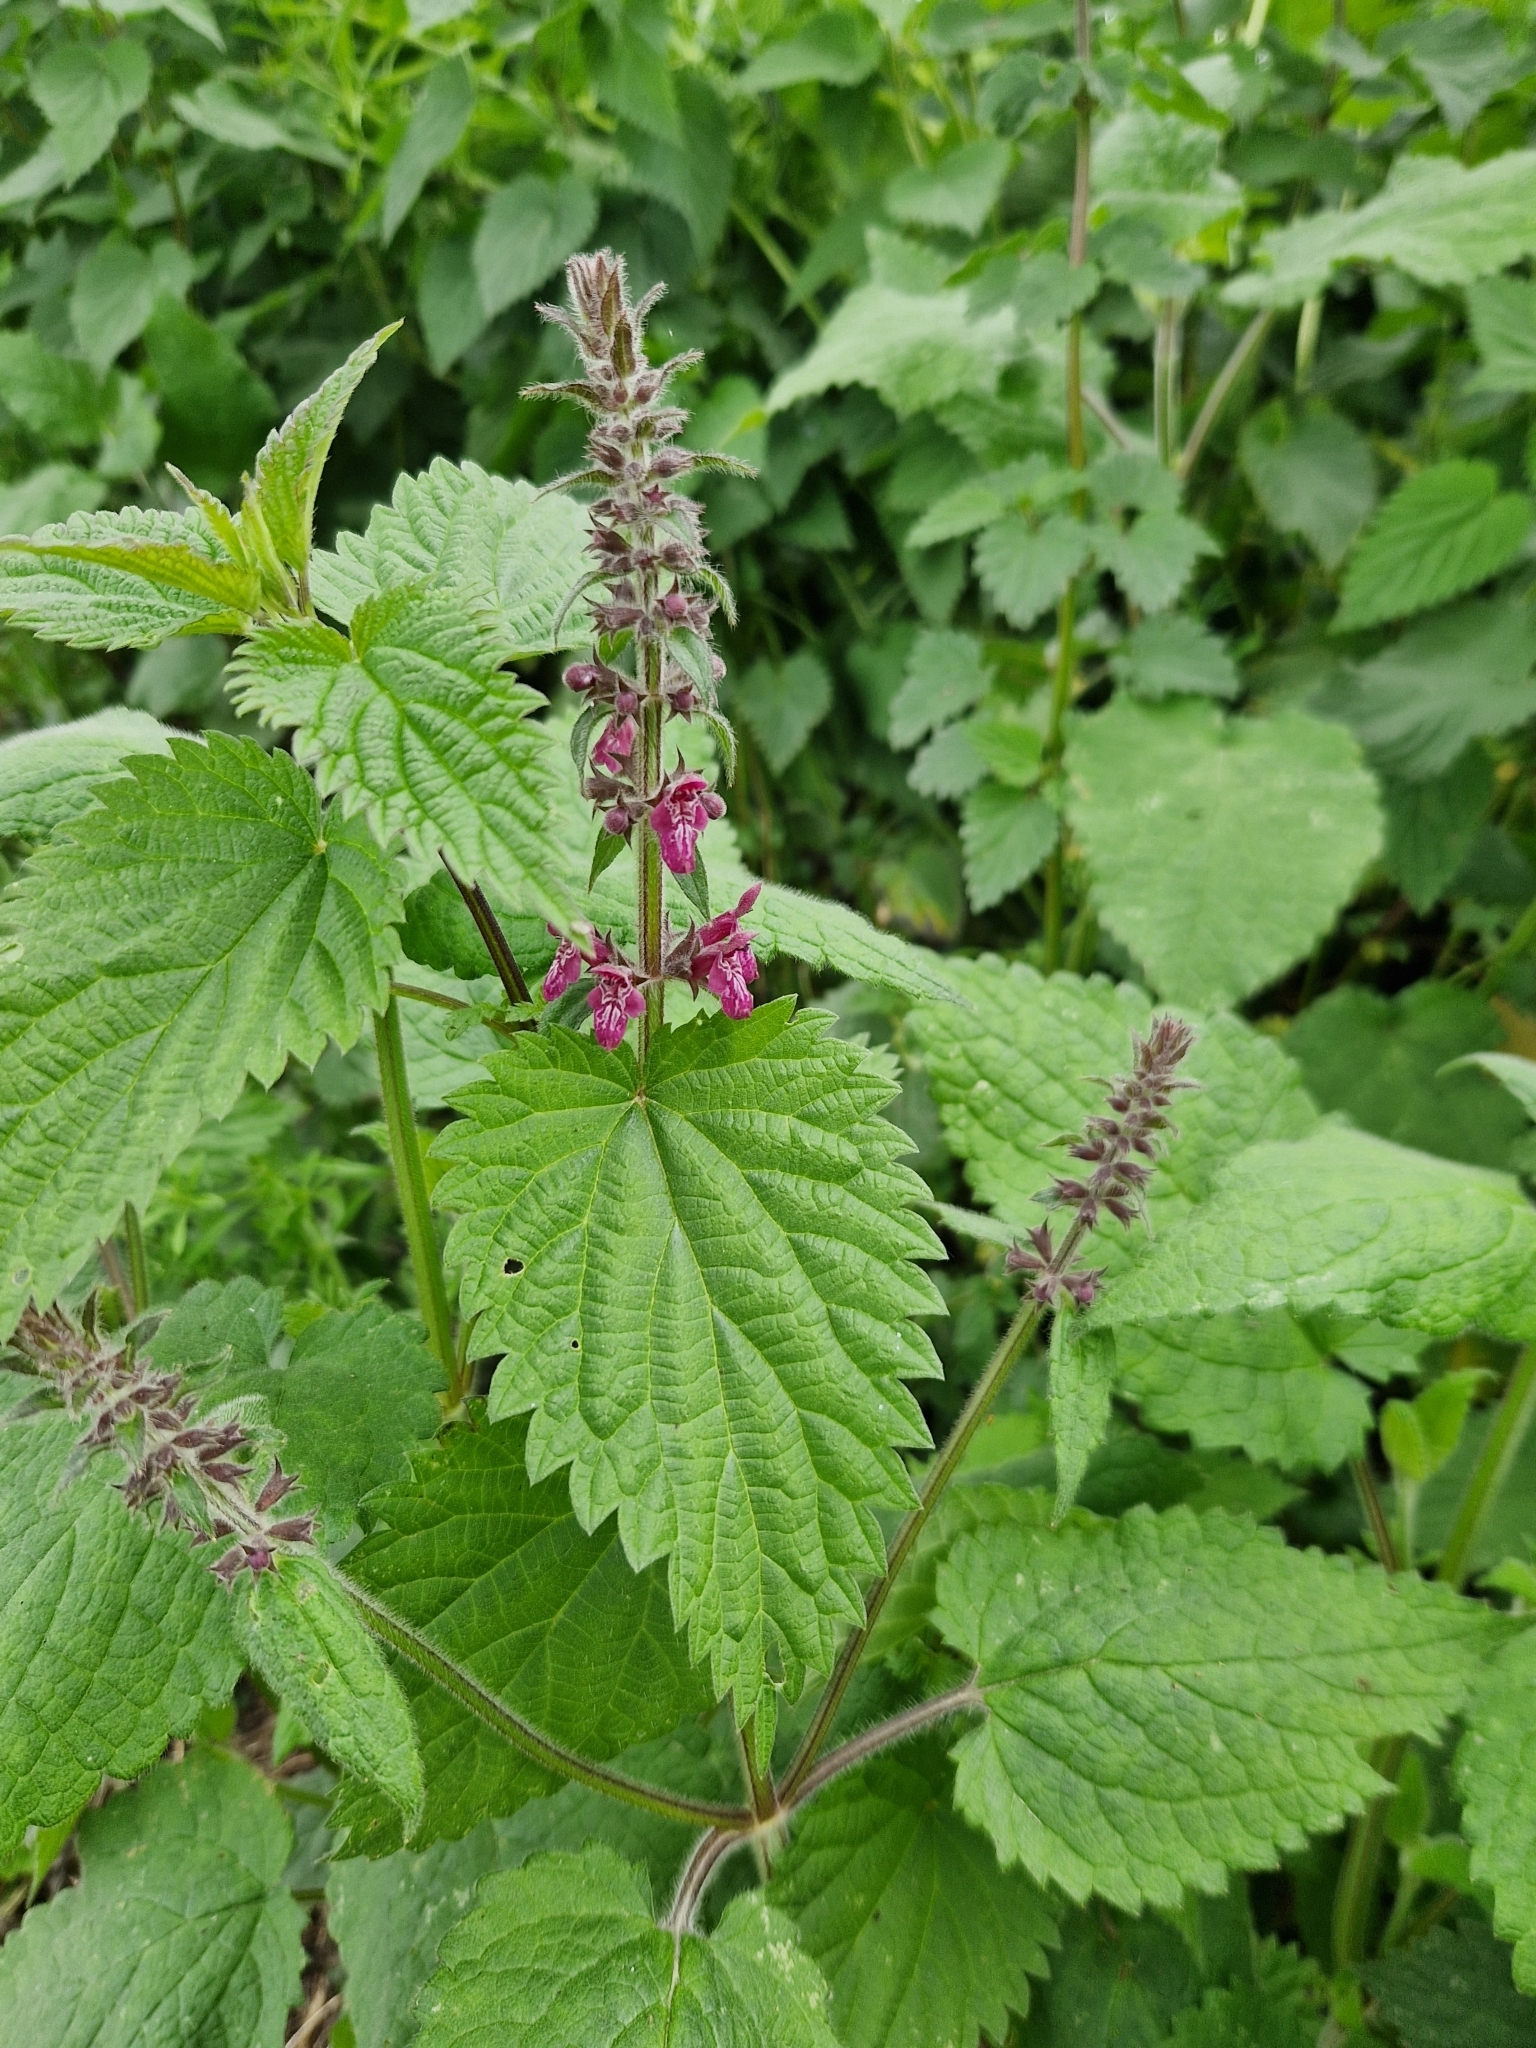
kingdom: Plantae
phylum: Tracheophyta
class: Magnoliopsida
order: Lamiales
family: Lamiaceae
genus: Stachys
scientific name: Stachys sylvatica
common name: Hedge woundwort
